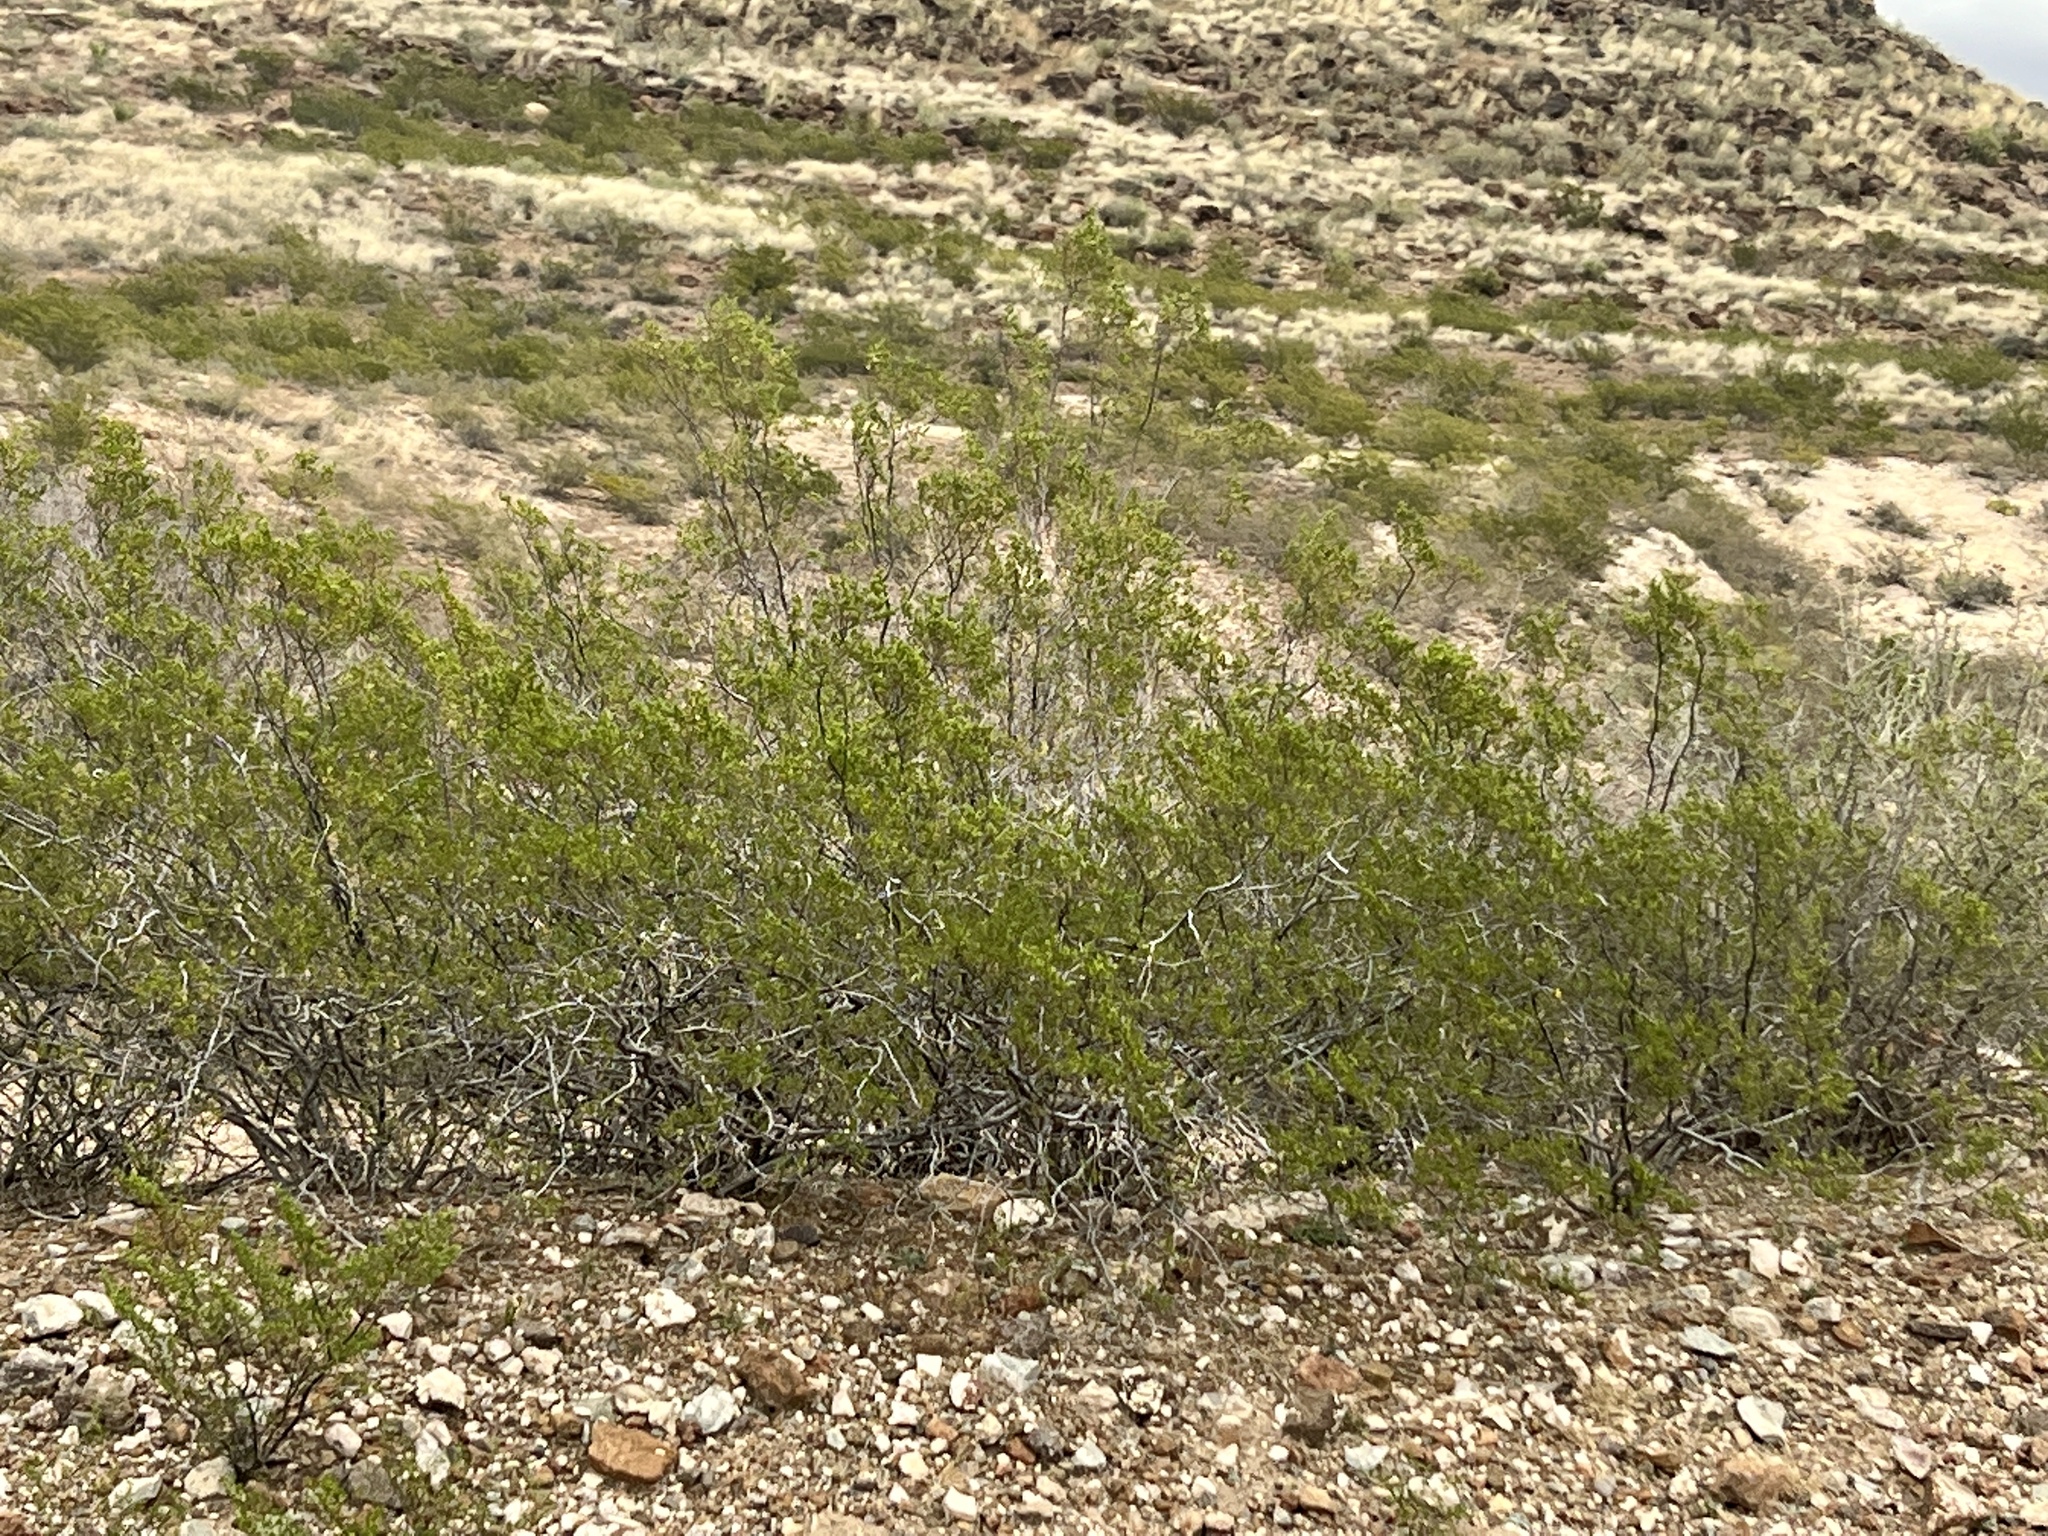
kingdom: Plantae
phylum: Tracheophyta
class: Magnoliopsida
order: Zygophyllales
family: Zygophyllaceae
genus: Larrea
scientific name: Larrea tridentata
